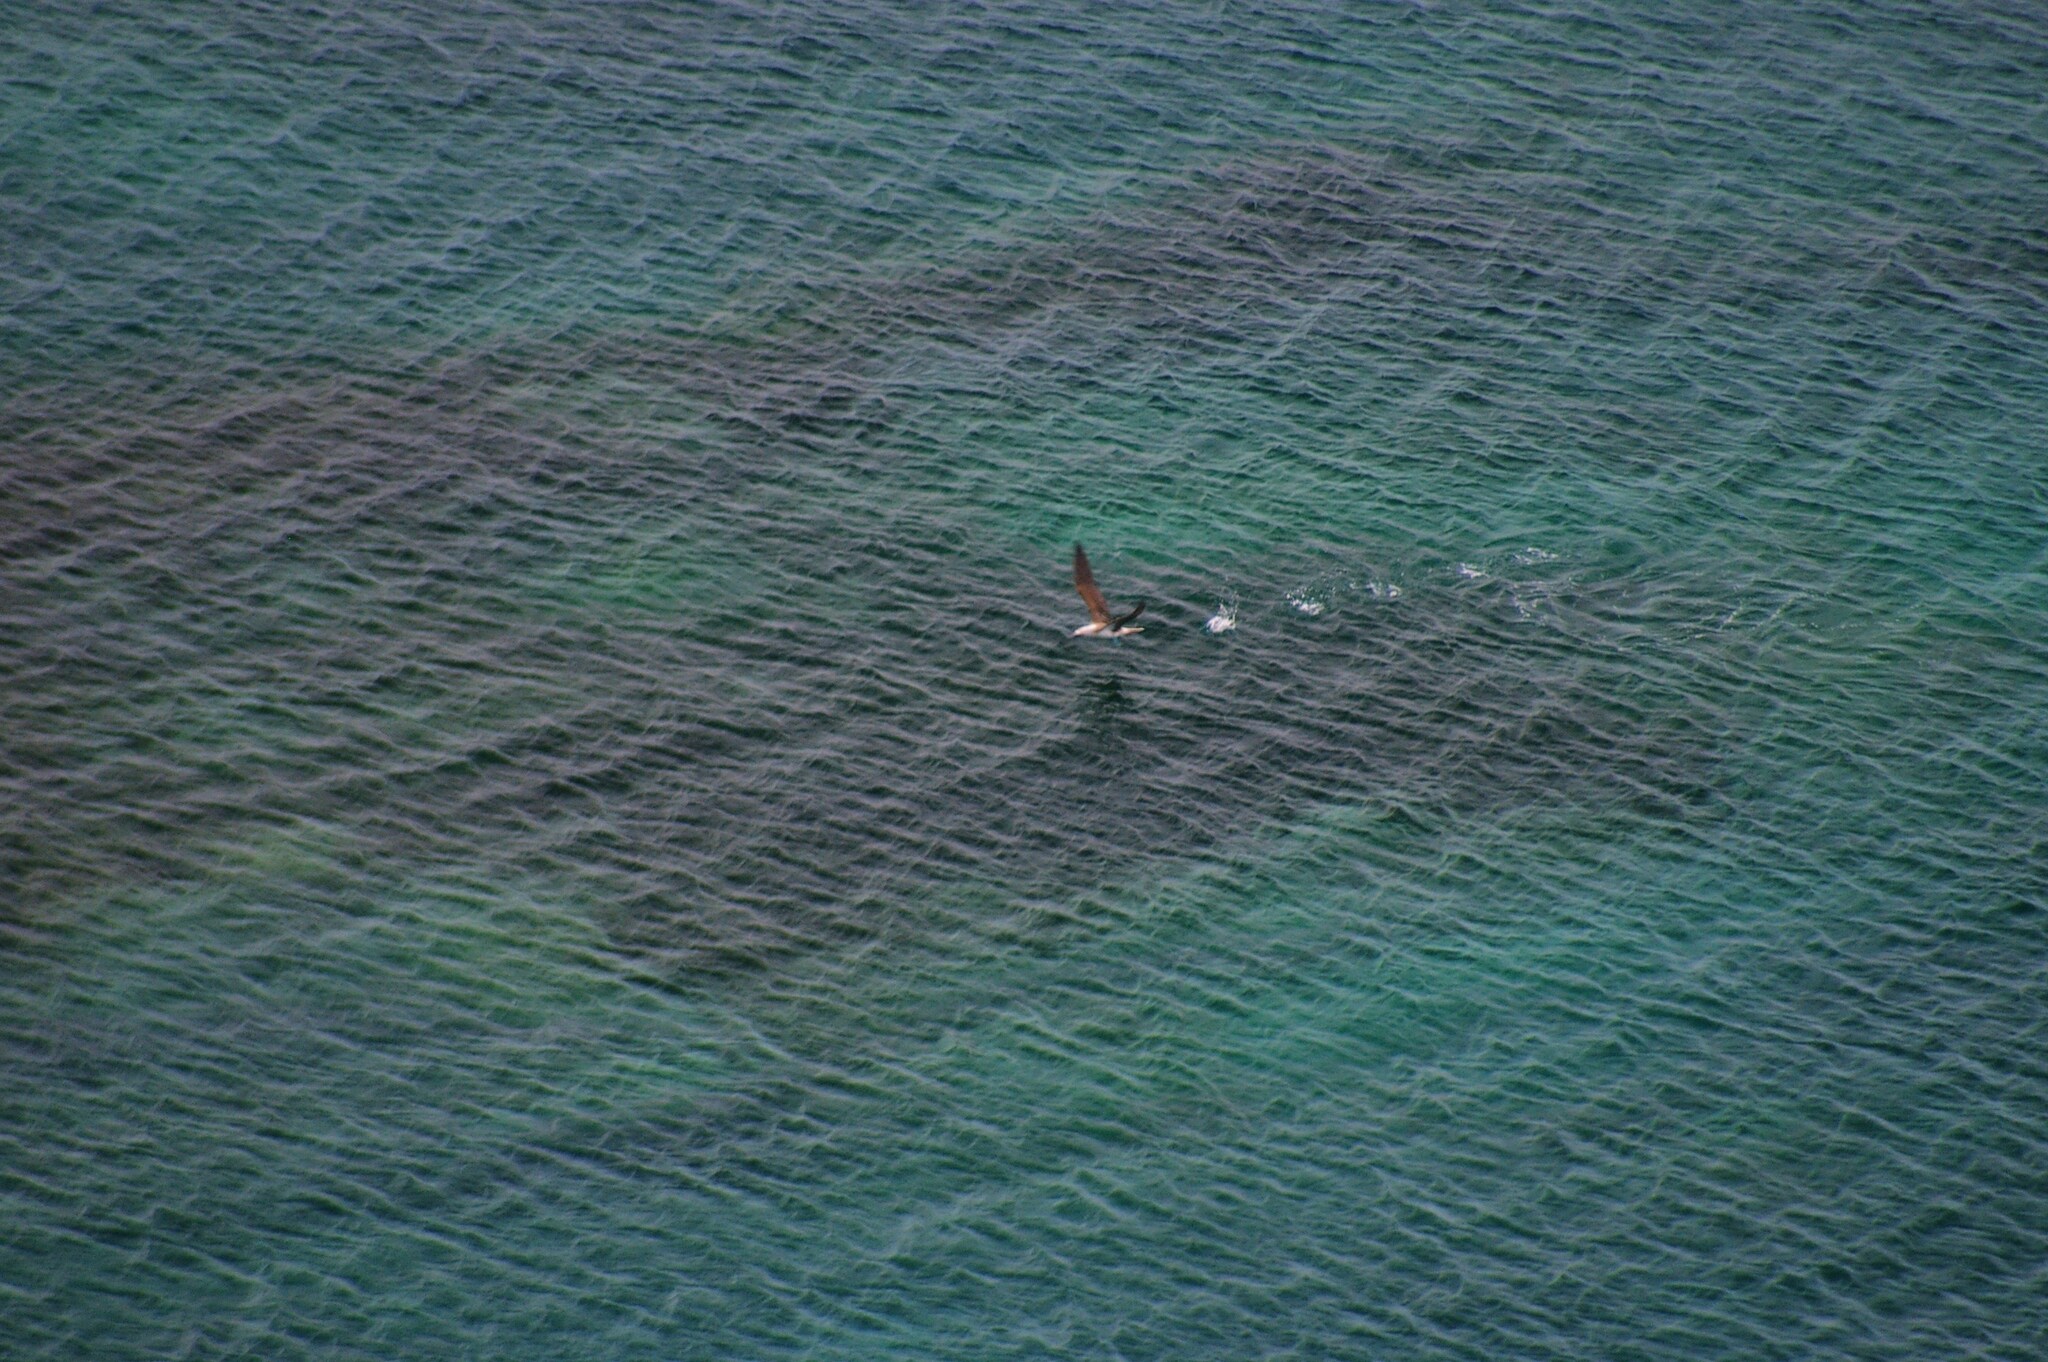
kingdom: Animalia
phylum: Chordata
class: Aves
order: Suliformes
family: Sulidae
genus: Sula
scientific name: Sula nebouxii
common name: Blue-footed booby
